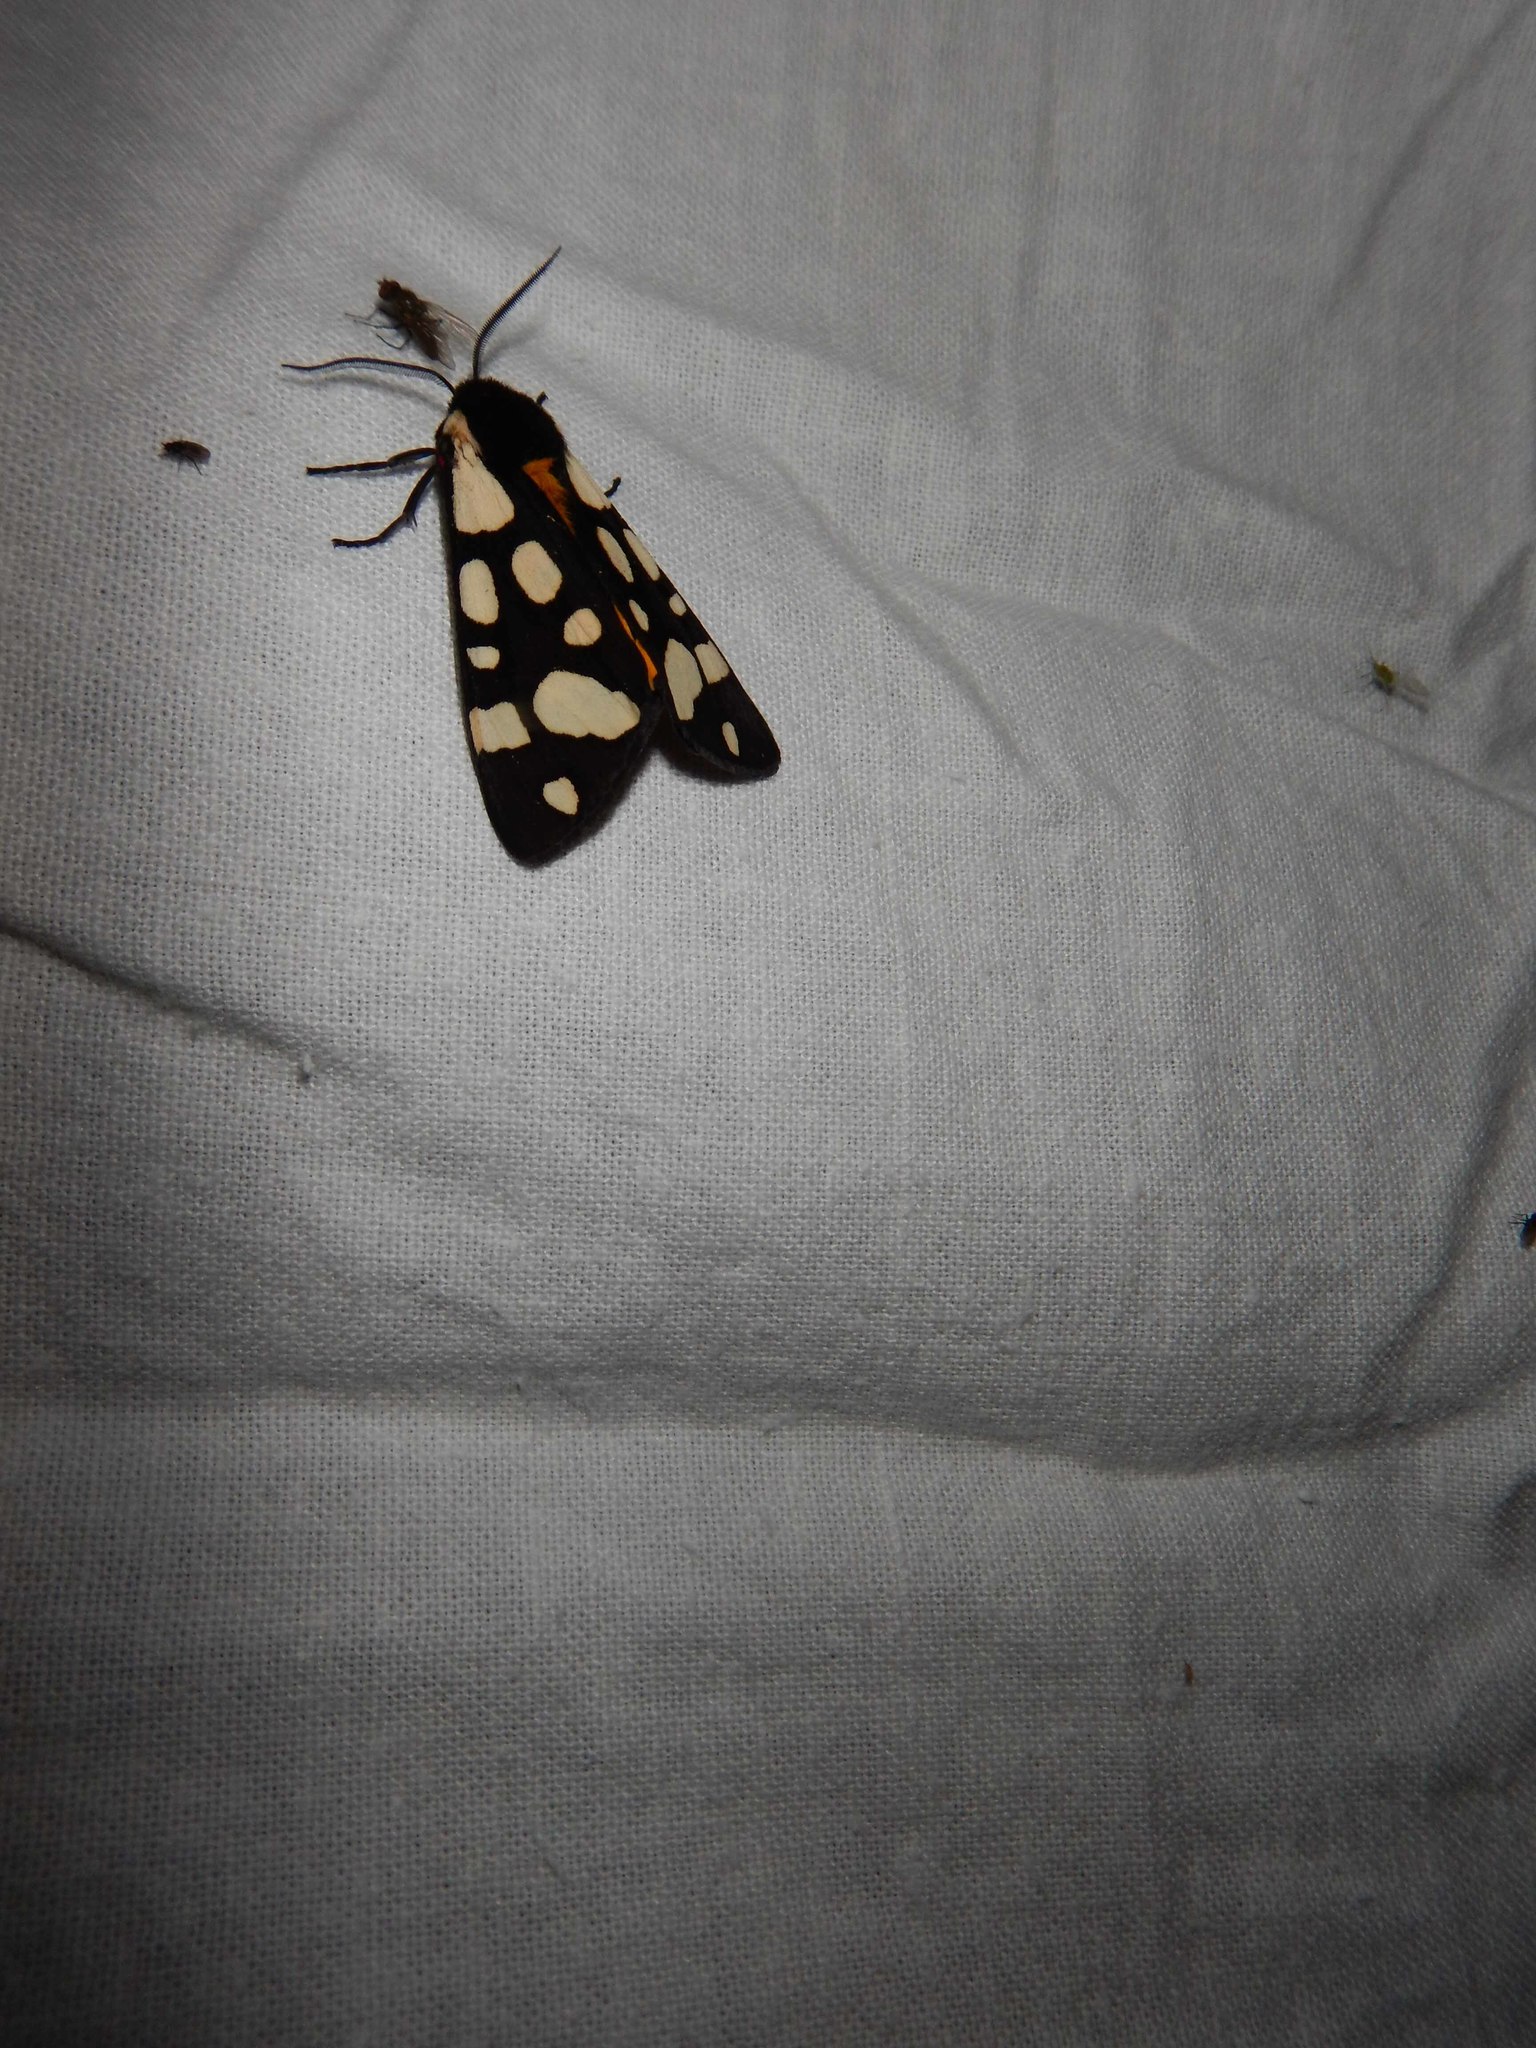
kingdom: Animalia
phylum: Arthropoda
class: Insecta
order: Lepidoptera
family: Erebidae
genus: Epicallia
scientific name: Epicallia villica
